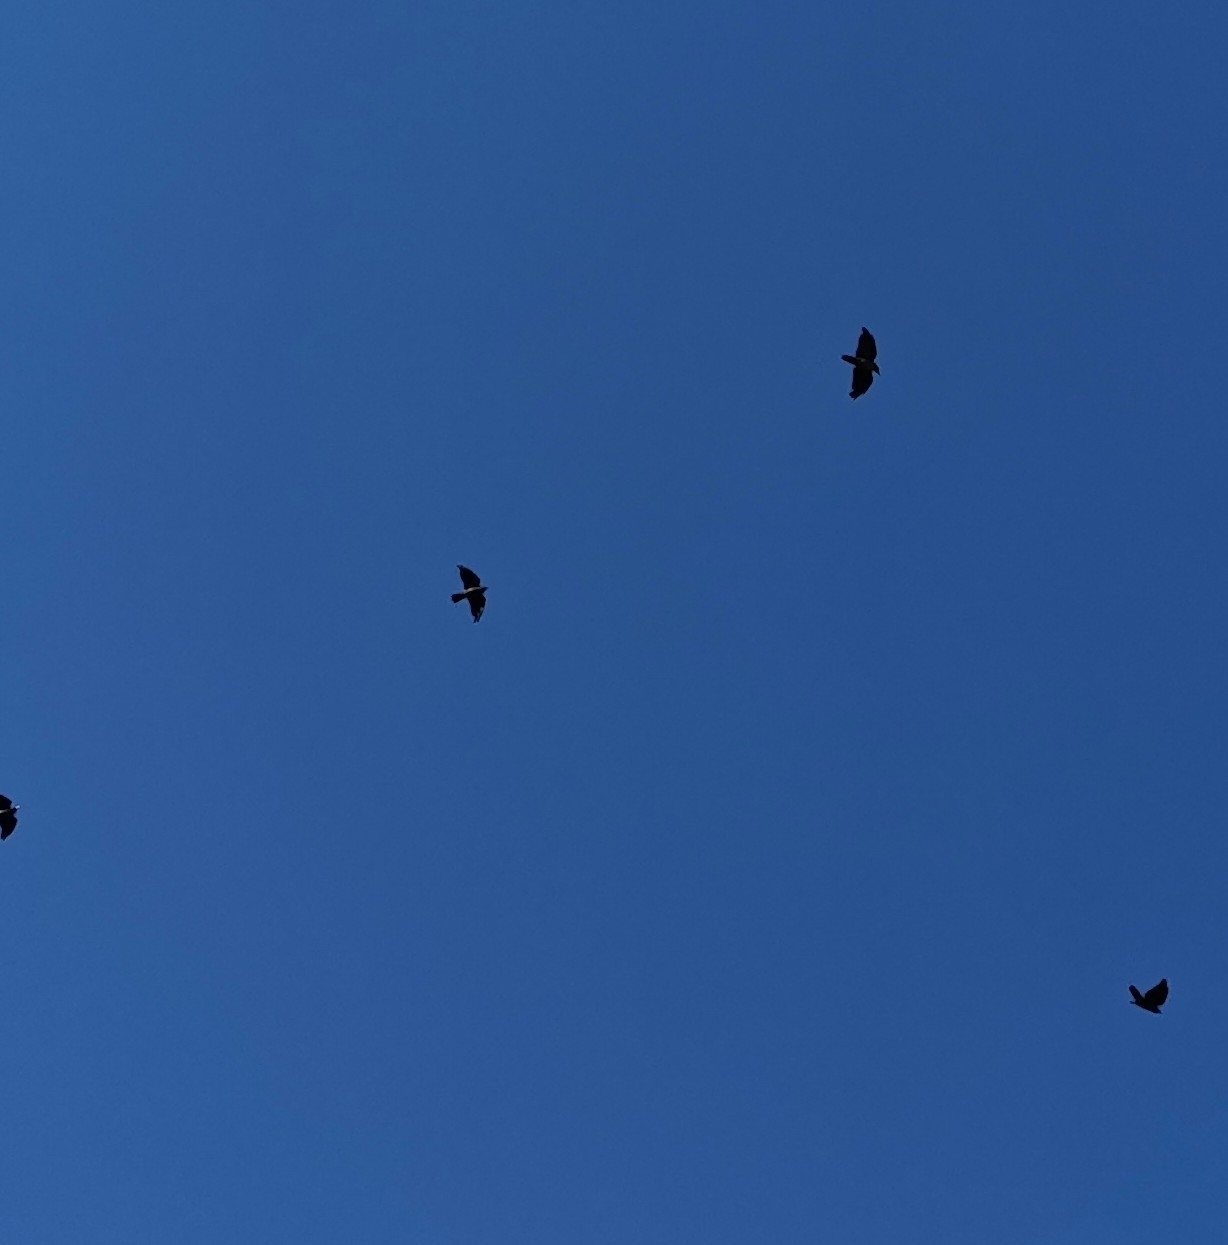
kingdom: Animalia
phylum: Chordata
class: Aves
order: Passeriformes
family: Corvidae
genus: Coloeus
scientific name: Coloeus monedula
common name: Western jackdaw
